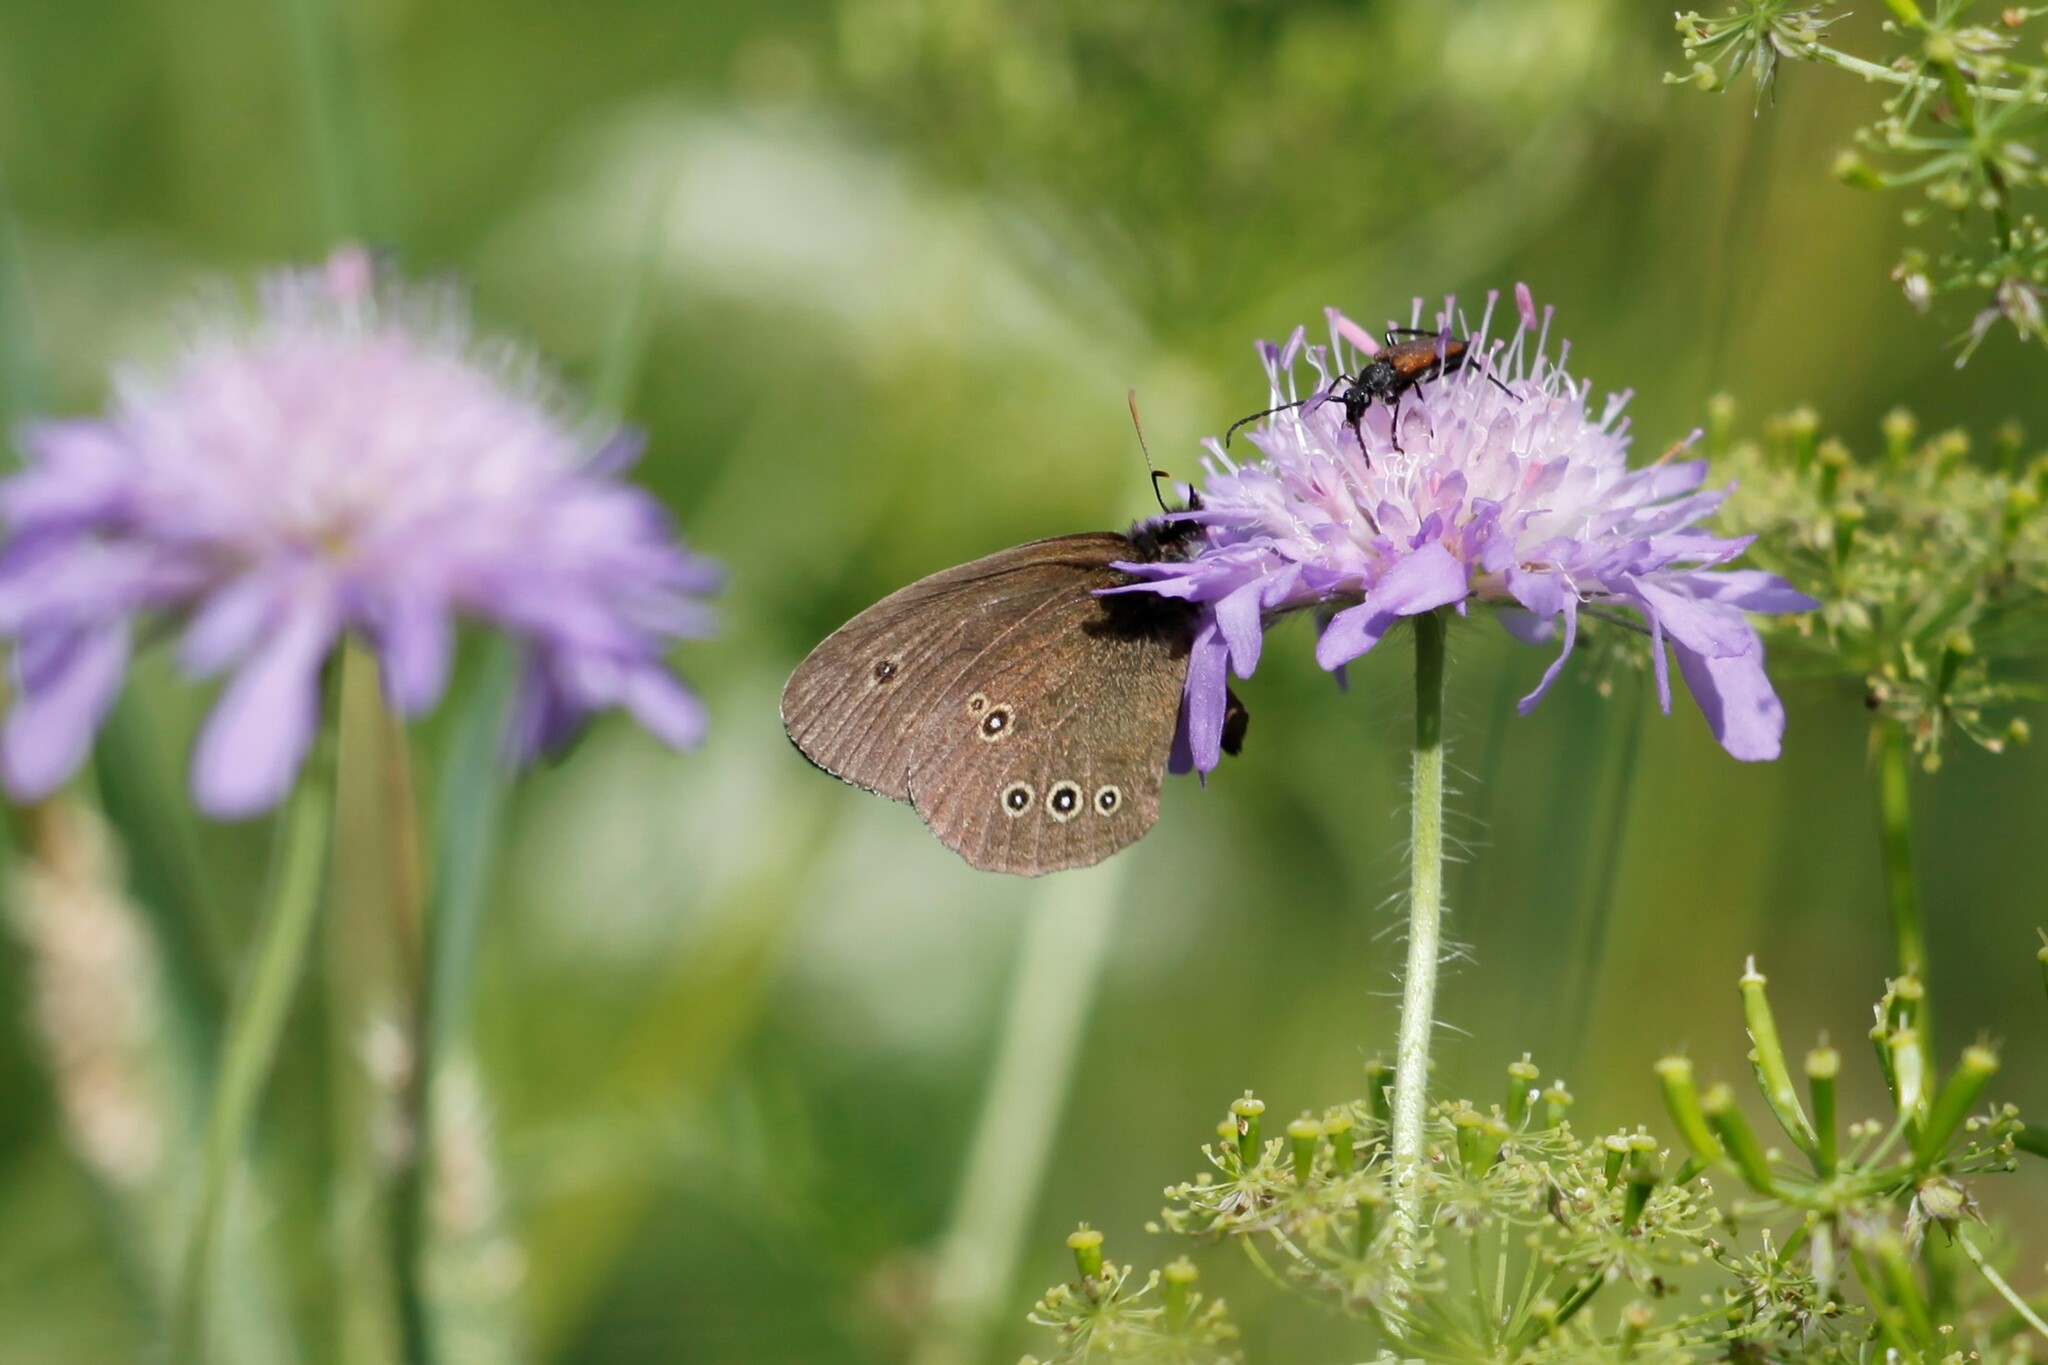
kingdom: Animalia
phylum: Arthropoda
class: Insecta
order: Lepidoptera
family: Nymphalidae
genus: Aphantopus
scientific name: Aphantopus hyperantus
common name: Ringlet
